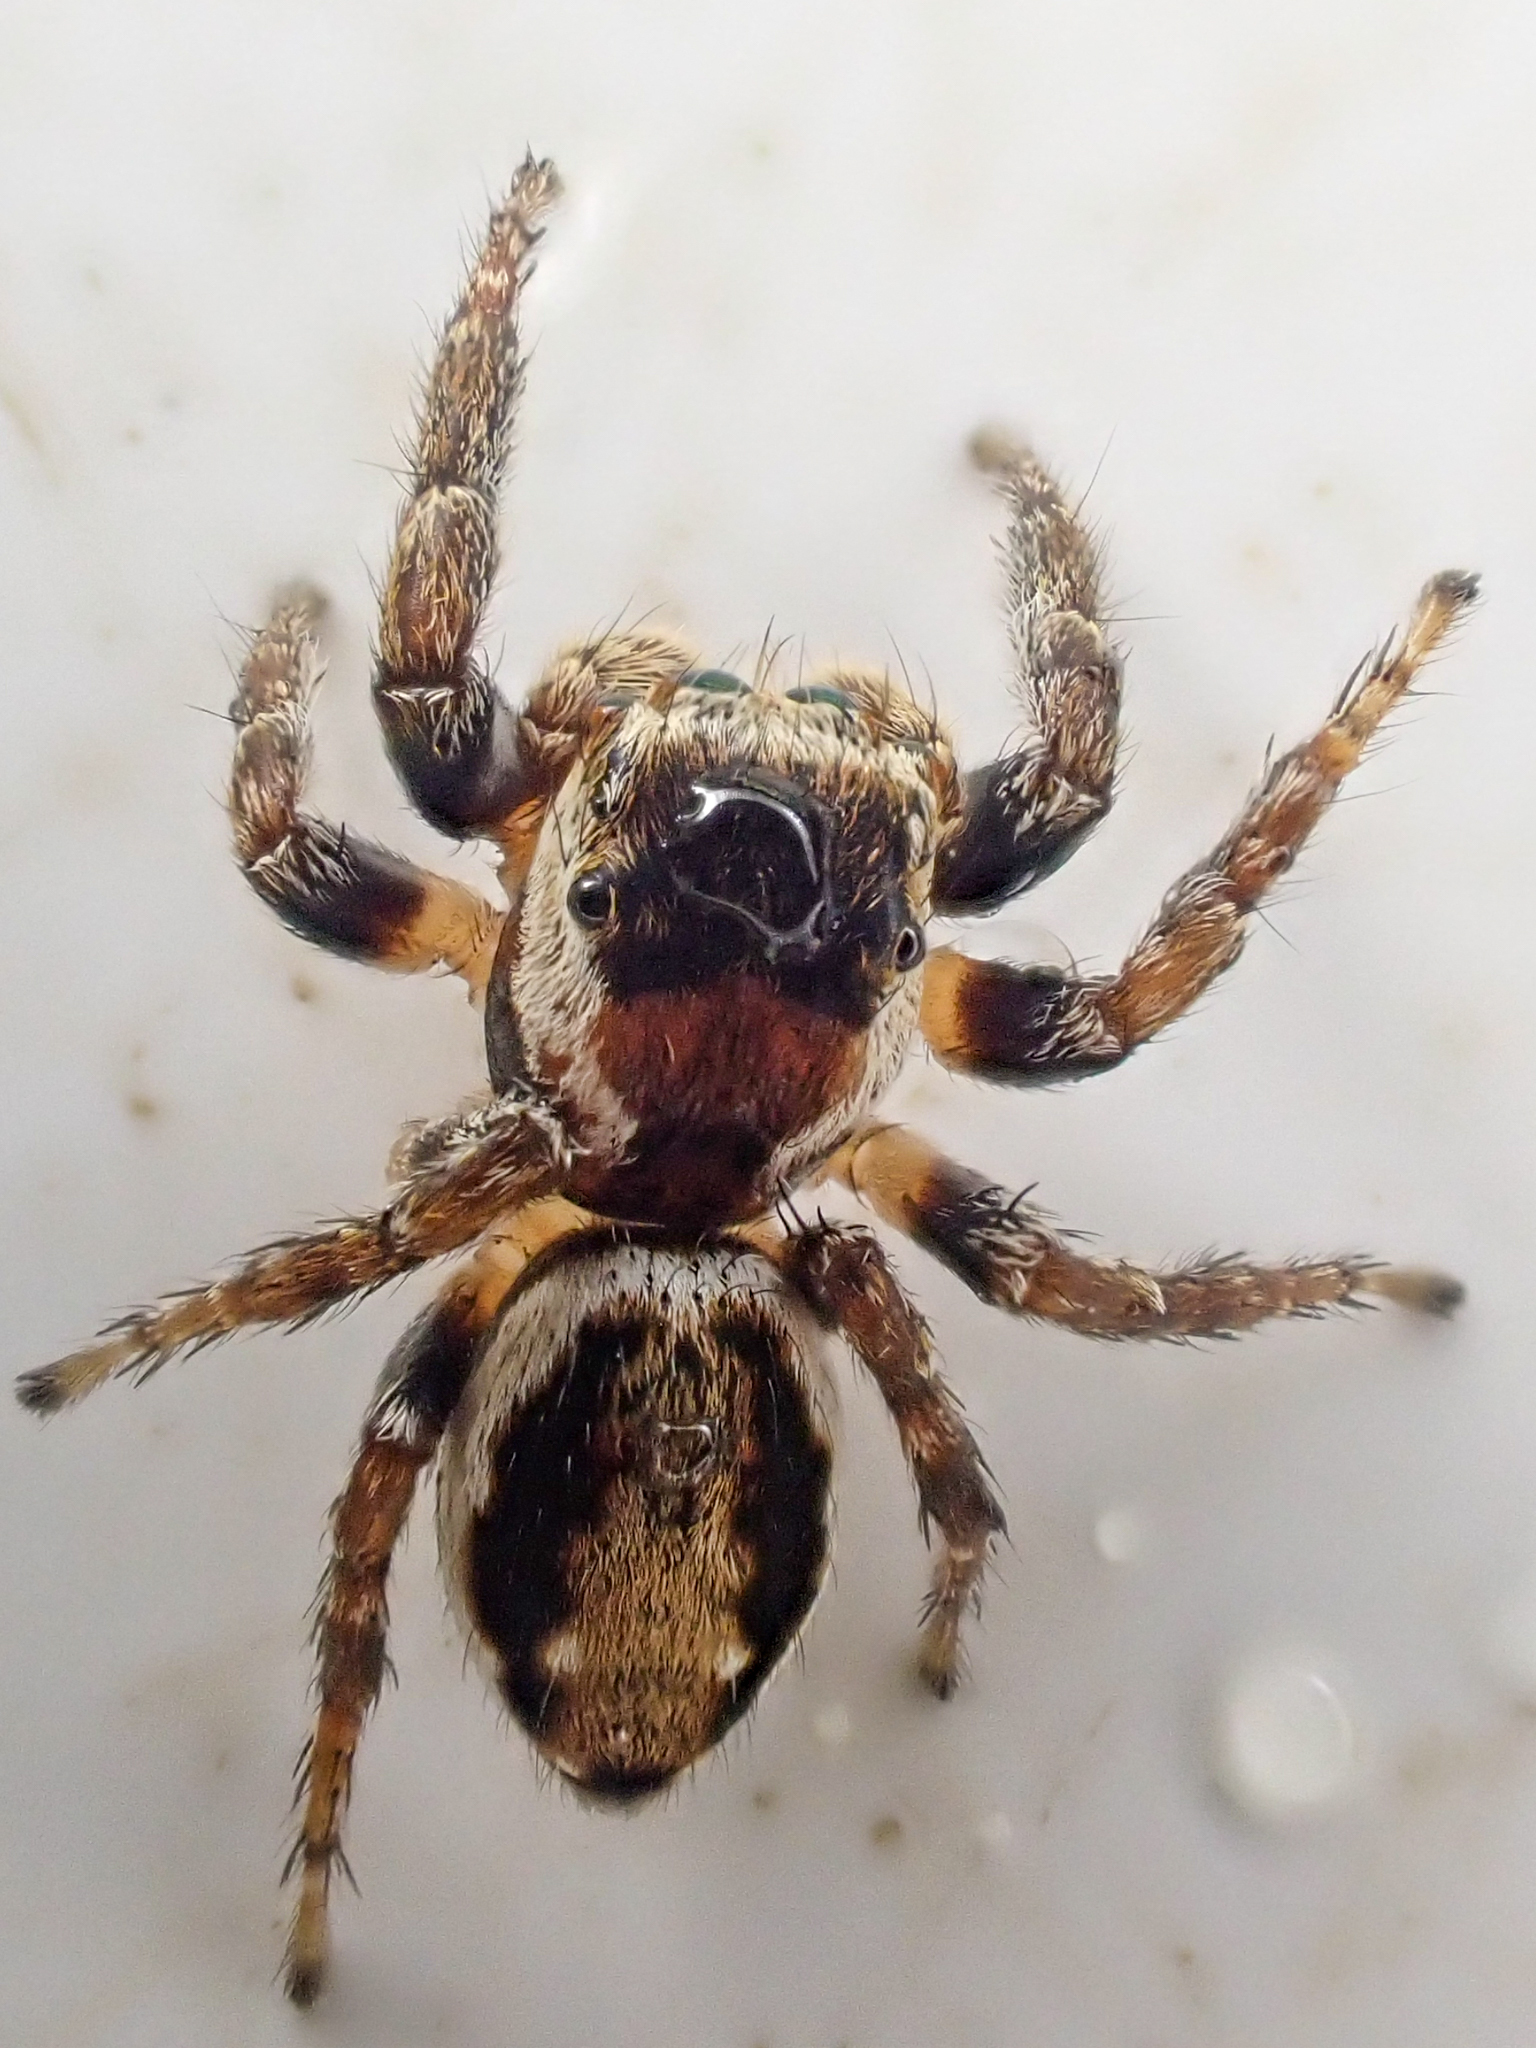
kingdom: Animalia
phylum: Arthropoda
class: Arachnida
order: Araneae
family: Salticidae
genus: Evarcha
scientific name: Evarcha proszynskii
